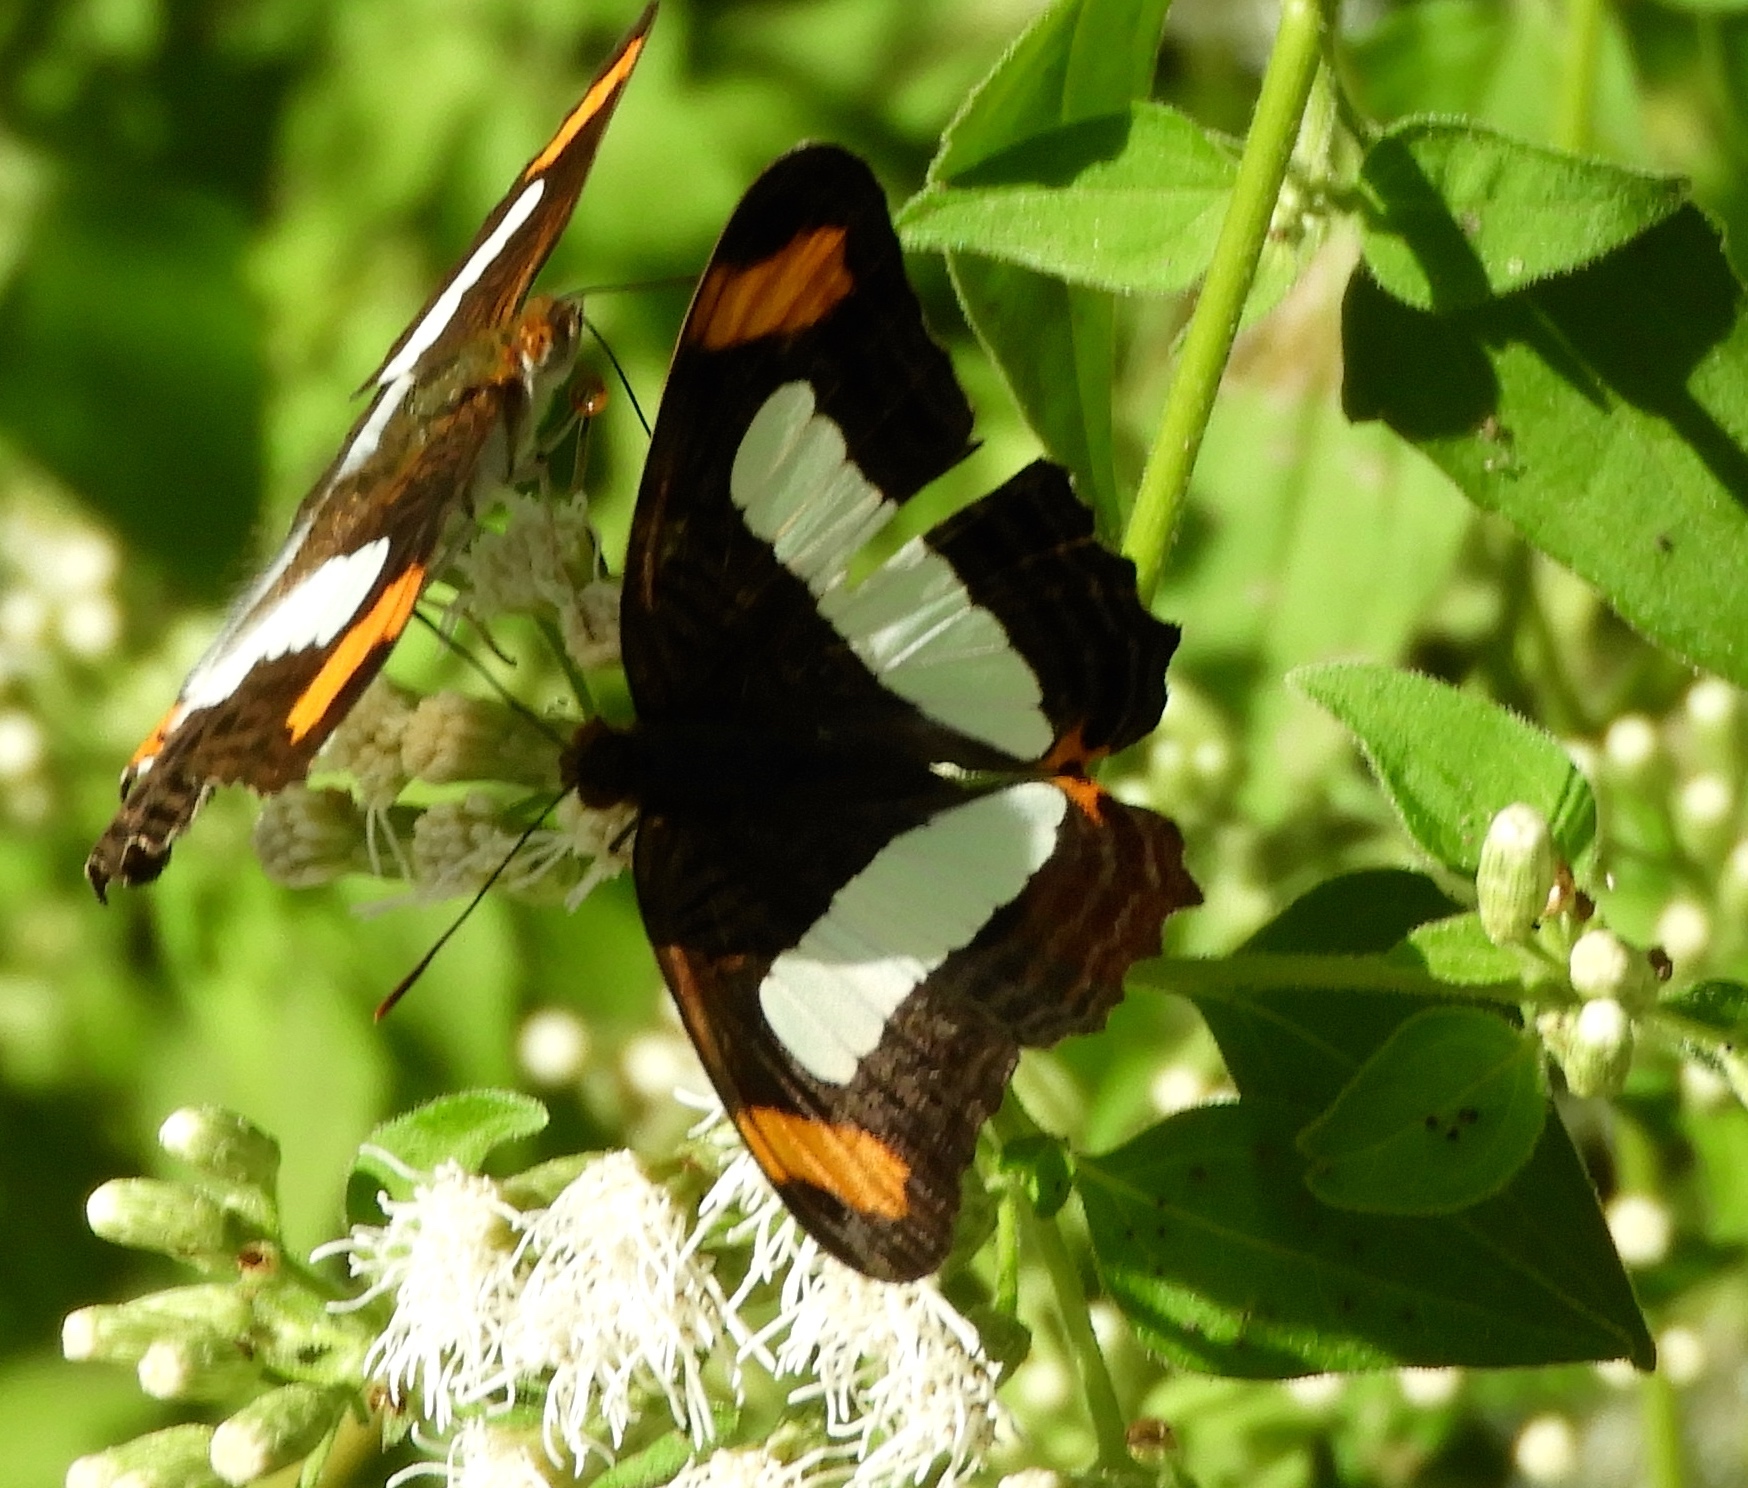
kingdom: Animalia
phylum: Arthropoda
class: Insecta
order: Lepidoptera
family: Nymphalidae
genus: Limenitis
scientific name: Limenitis iphiclus
